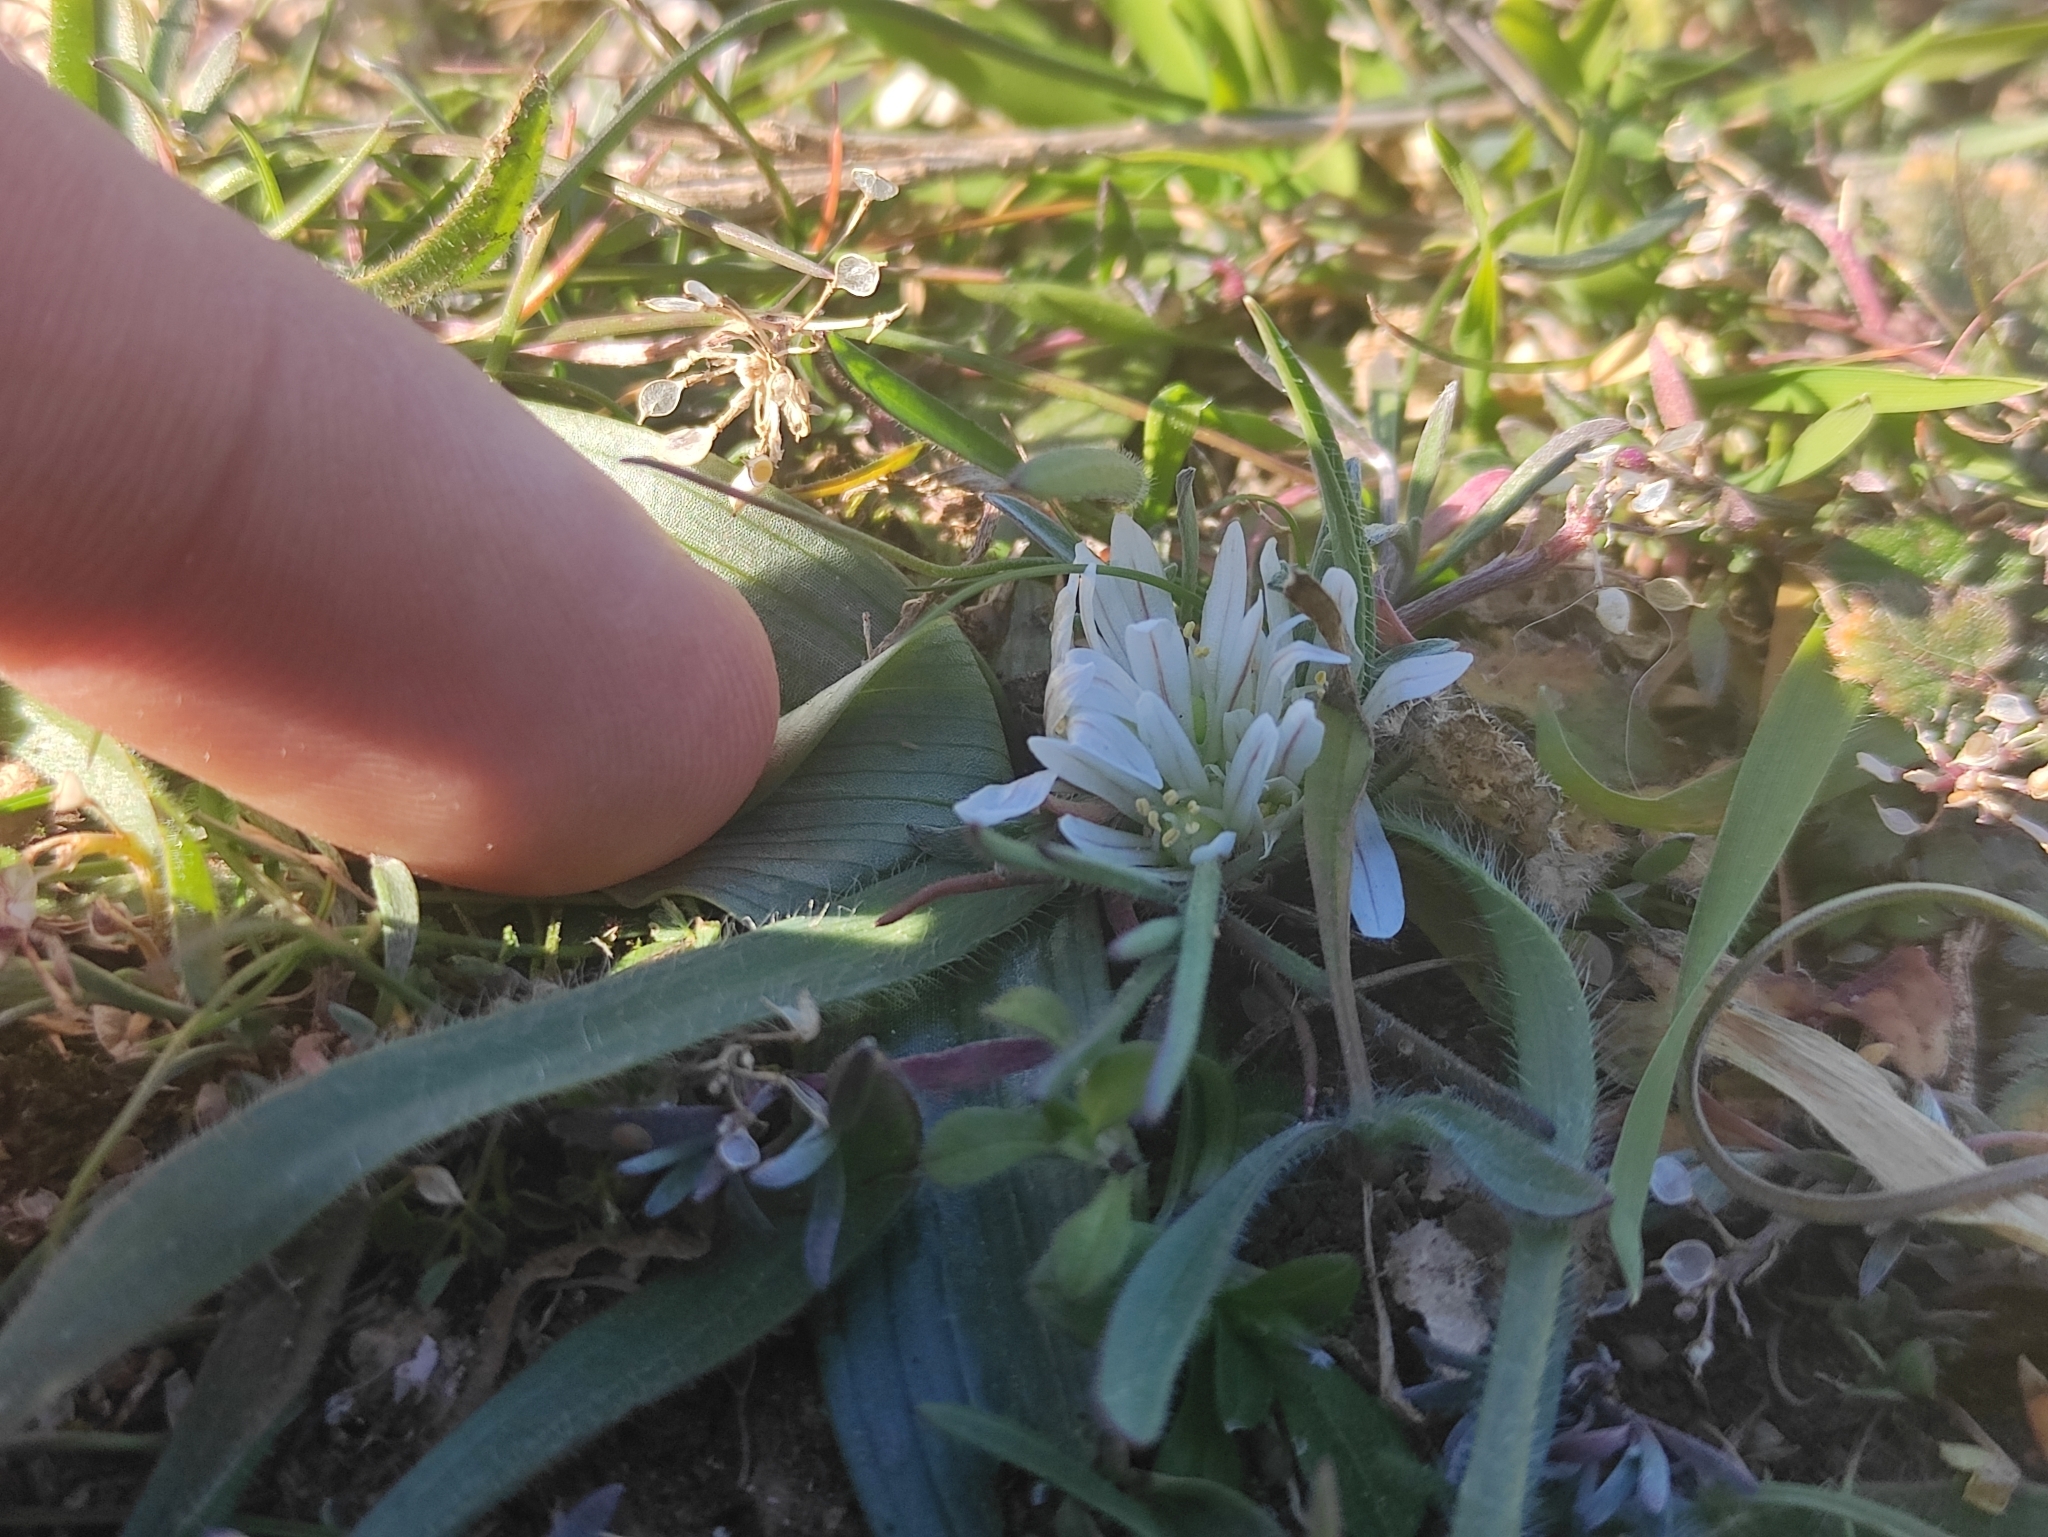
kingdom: Plantae
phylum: Tracheophyta
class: Liliopsida
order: Asparagales
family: Amaryllidaceae
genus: Allium
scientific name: Allium chamaemoly
